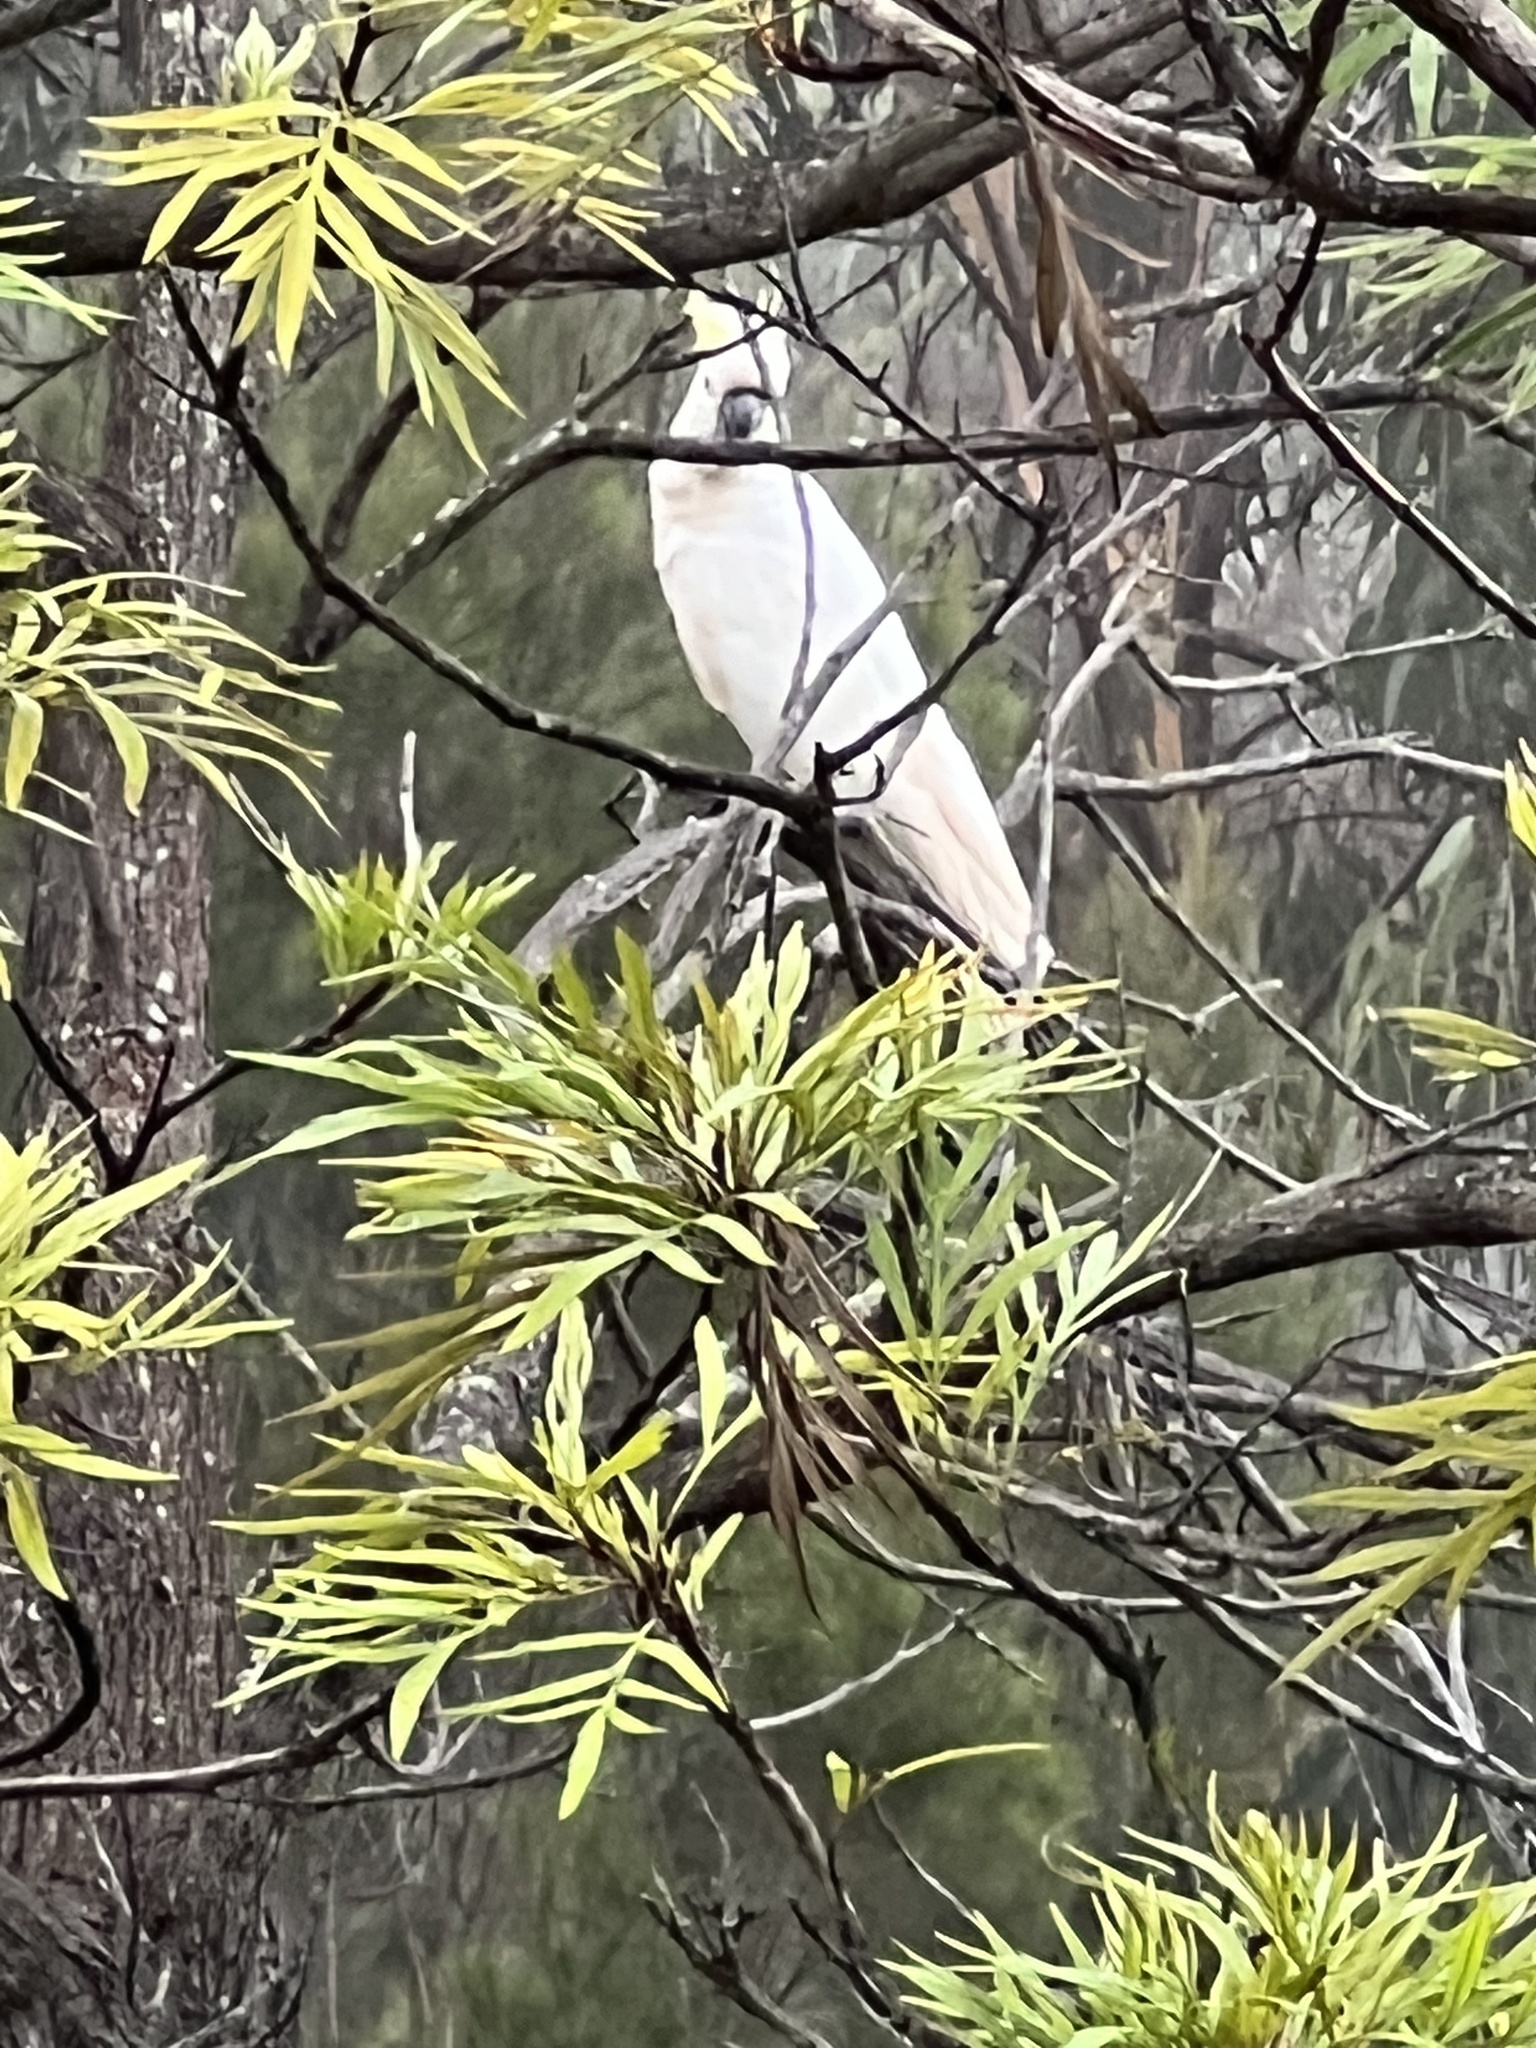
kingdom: Animalia
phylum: Chordata
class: Aves
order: Psittaciformes
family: Psittacidae
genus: Cacatua
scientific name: Cacatua galerita
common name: Sulphur-crested cockatoo
